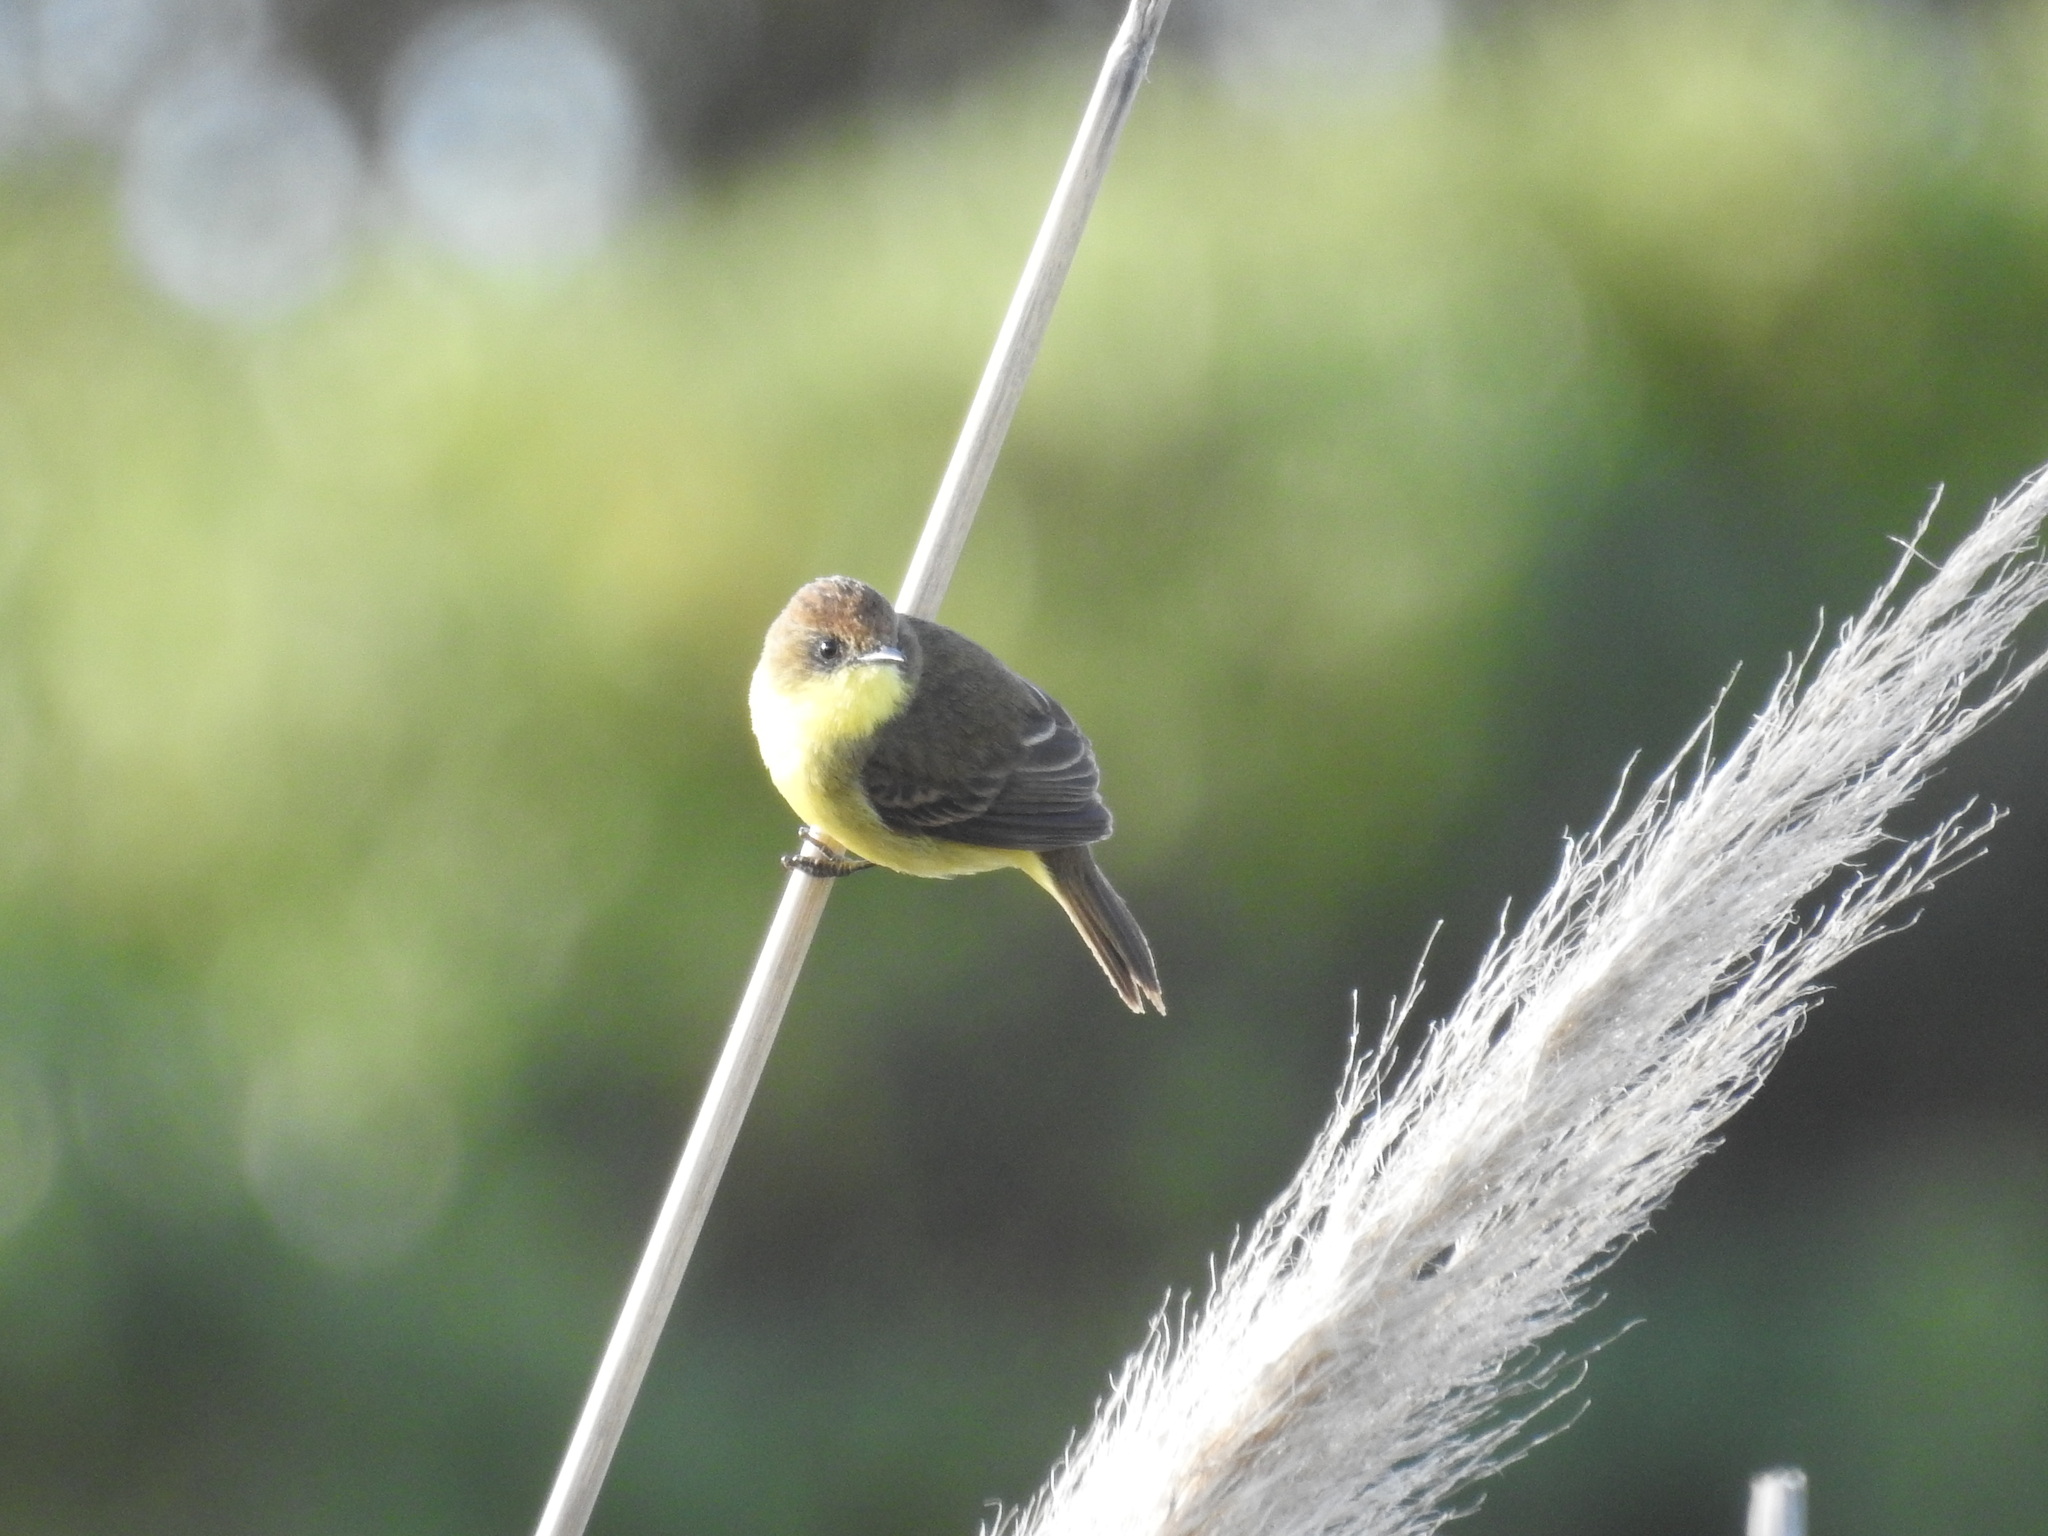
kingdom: Animalia
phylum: Chordata
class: Aves
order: Passeriformes
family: Tyrannidae
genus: Pseudocolopteryx
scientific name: Pseudocolopteryx flaviventris
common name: Warbling doradito
